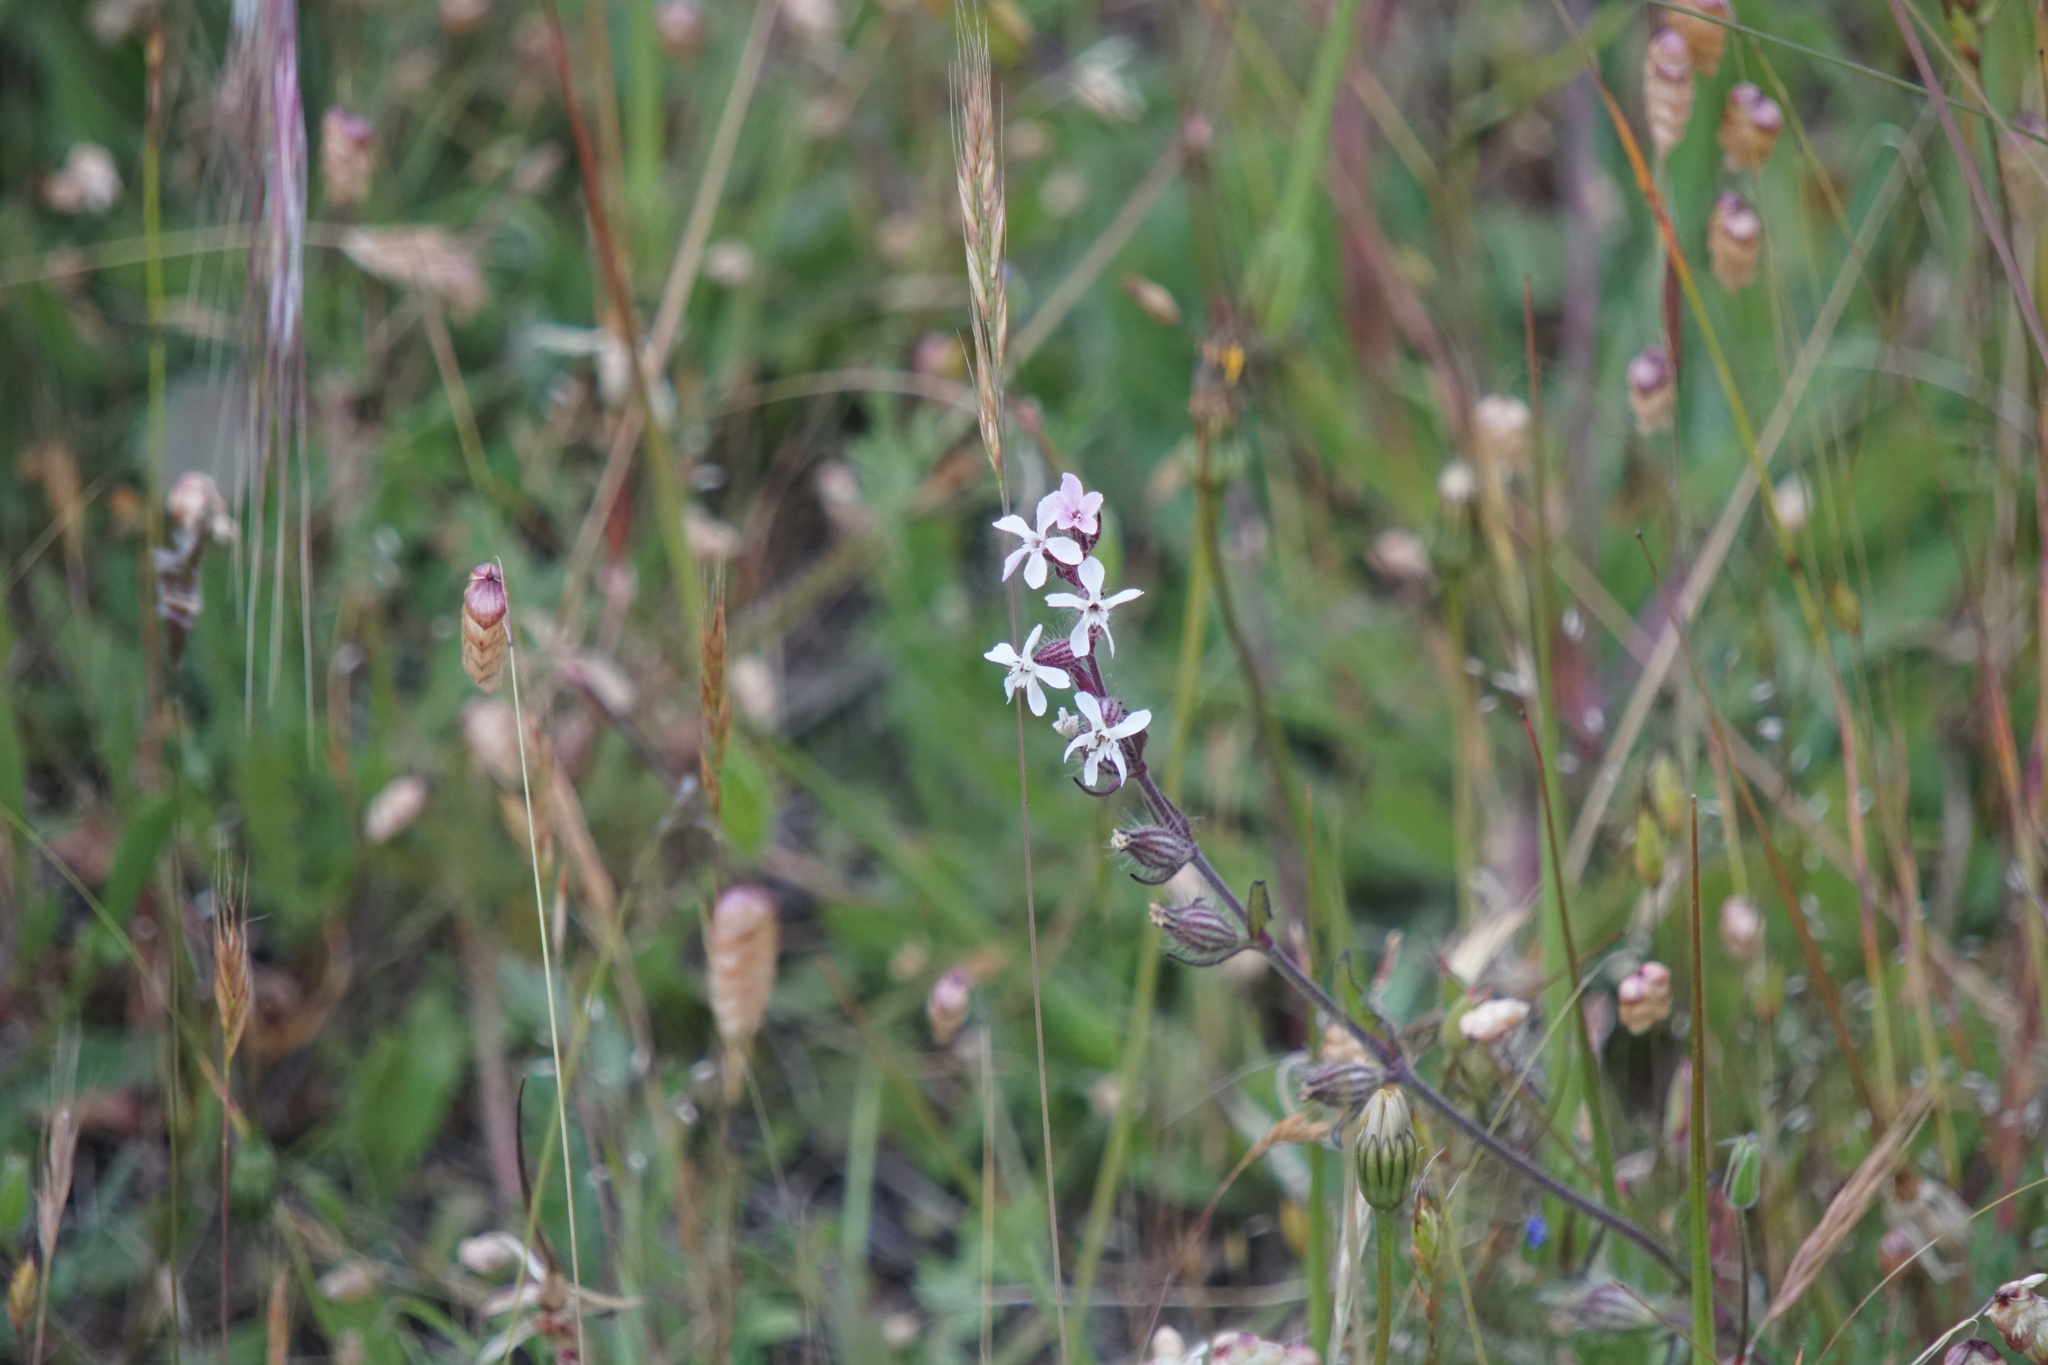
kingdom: Plantae
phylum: Tracheophyta
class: Magnoliopsida
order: Caryophyllales
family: Caryophyllaceae
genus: Silene
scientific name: Silene gallica
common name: Small-flowered catchfly
